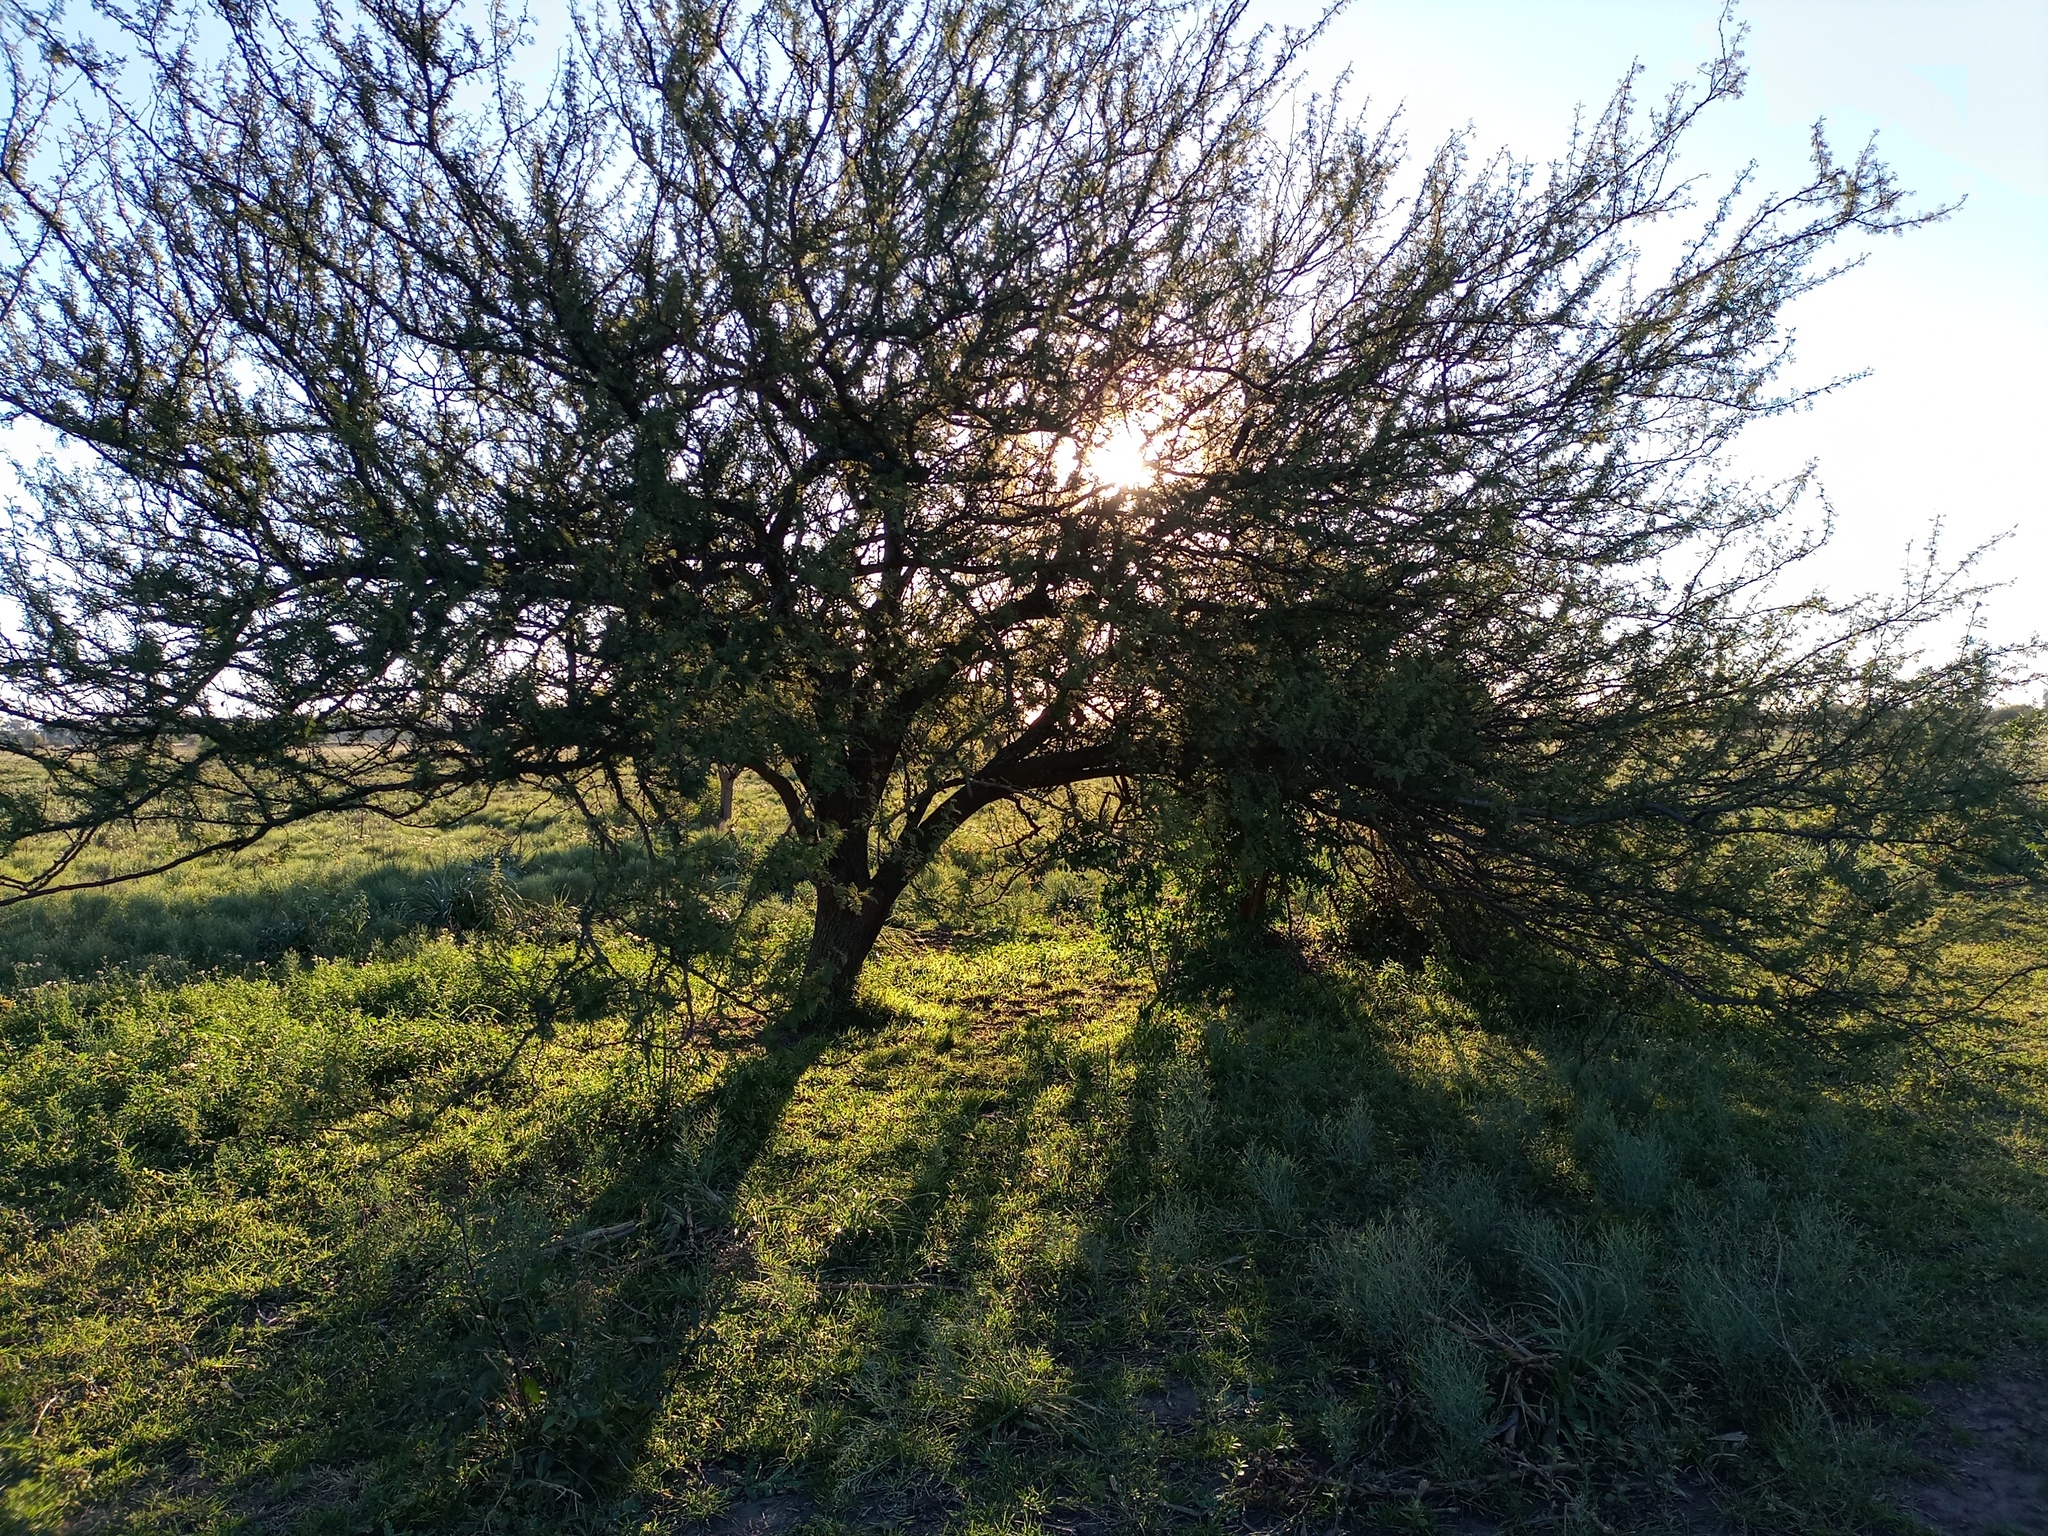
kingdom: Plantae
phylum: Tracheophyta
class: Magnoliopsida
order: Fabales
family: Fabaceae
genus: Vachellia
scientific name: Vachellia caven
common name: Roman cassie
